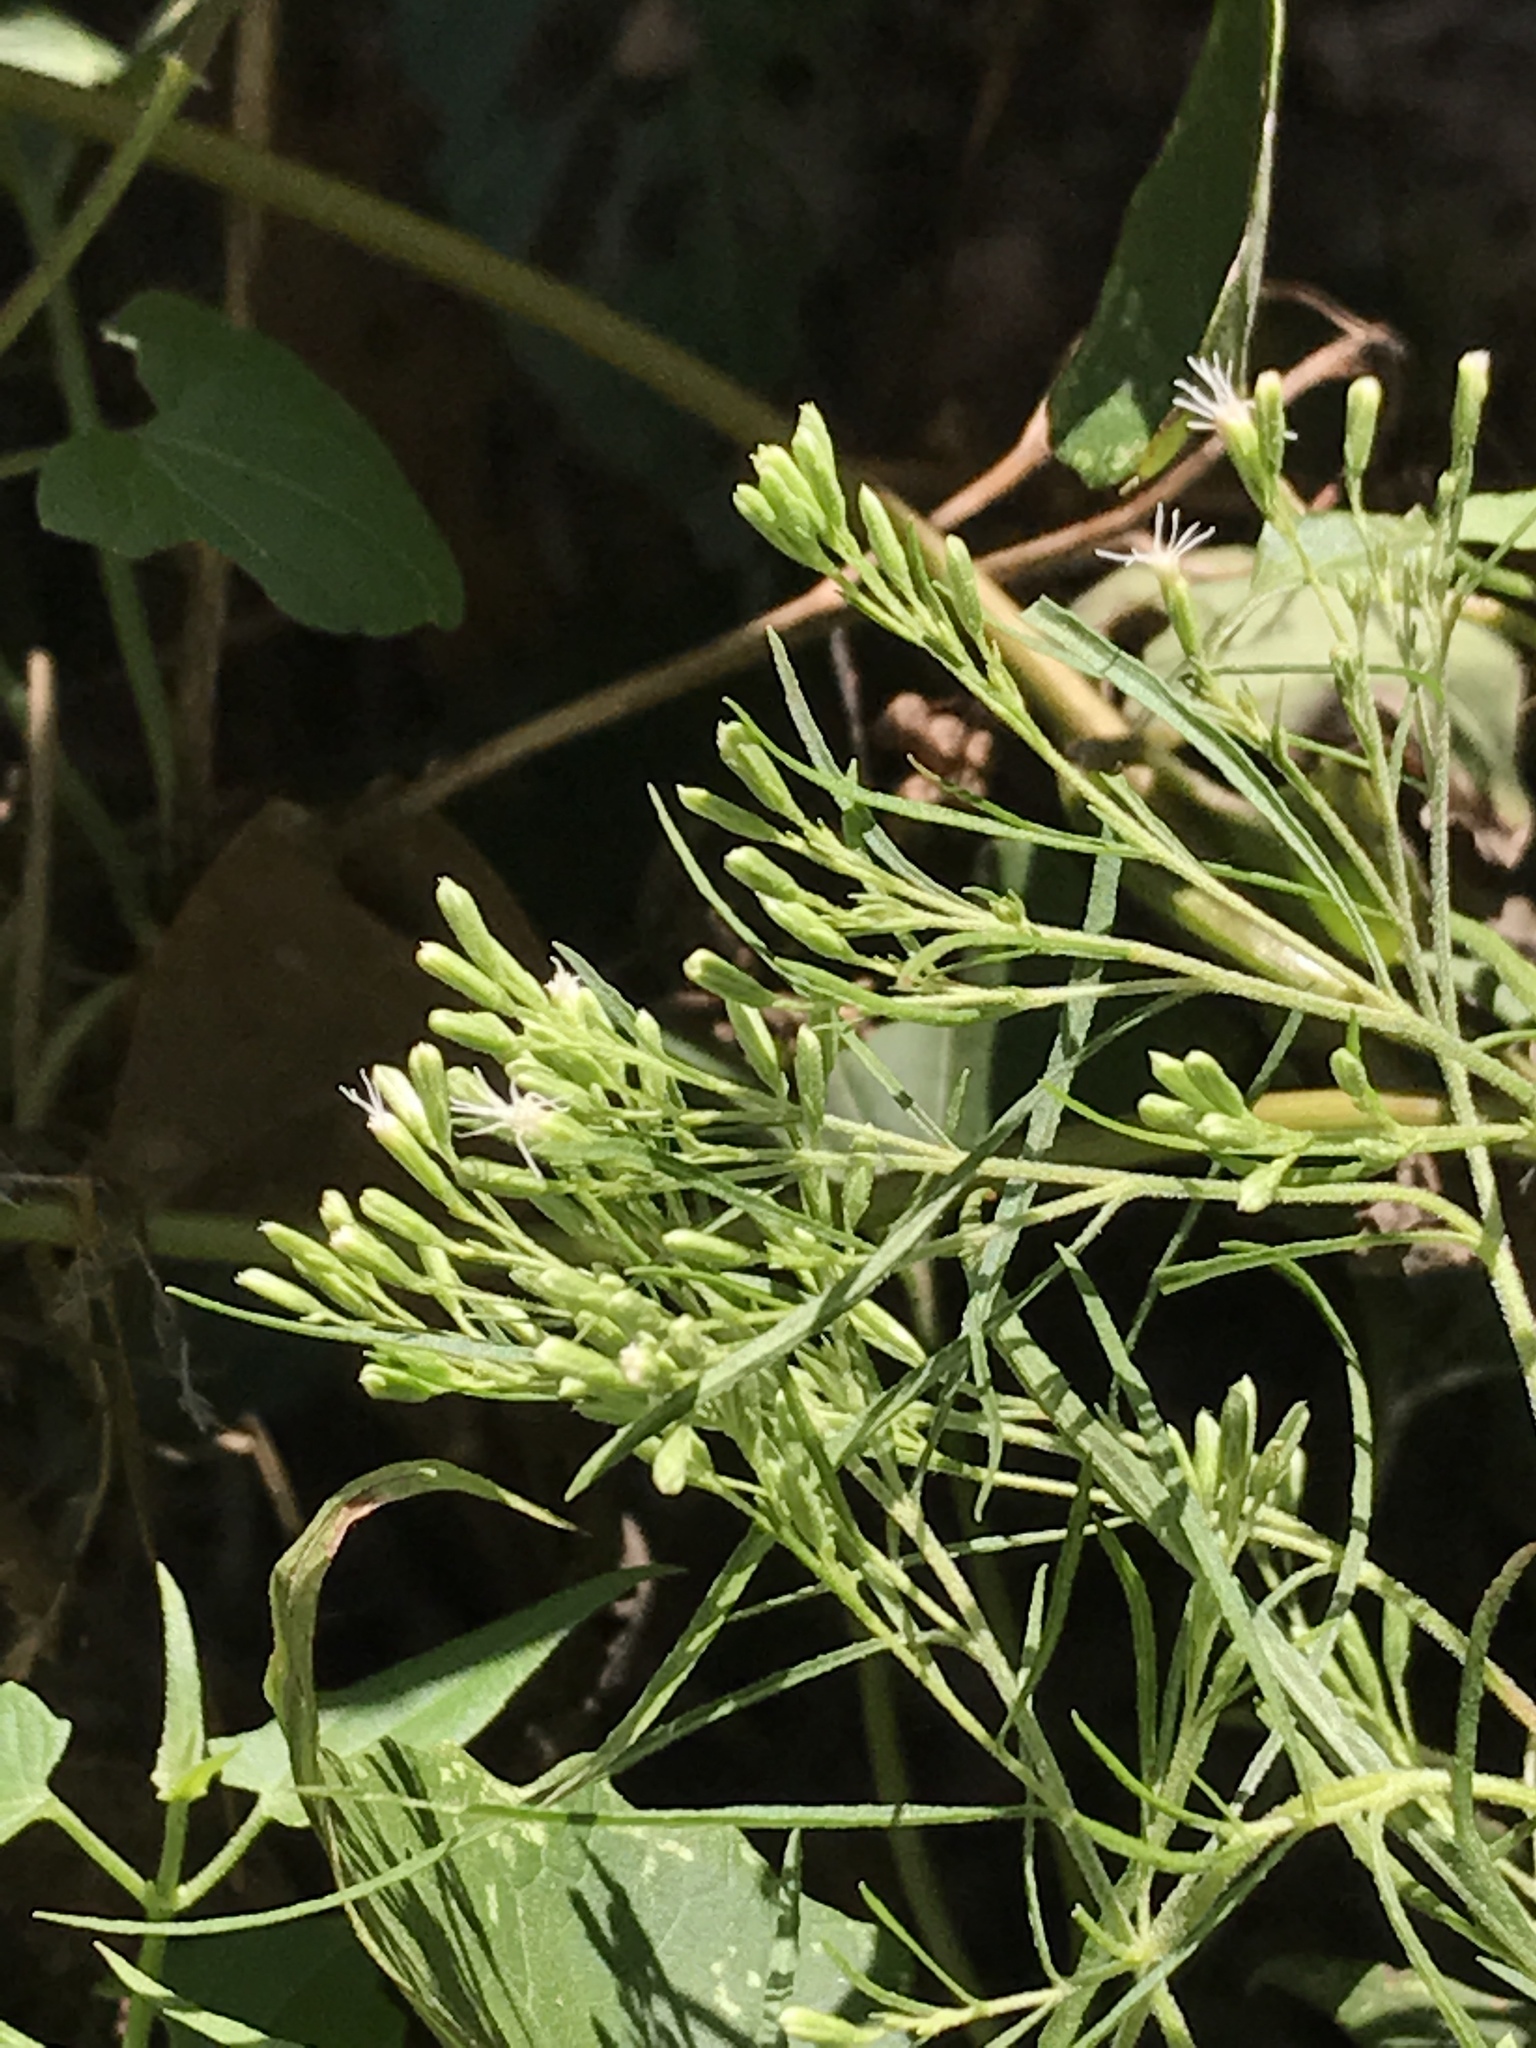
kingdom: Plantae
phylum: Tracheophyta
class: Magnoliopsida
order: Asterales
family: Asteraceae
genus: Eupatorium
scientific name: Eupatorium compositifolium
